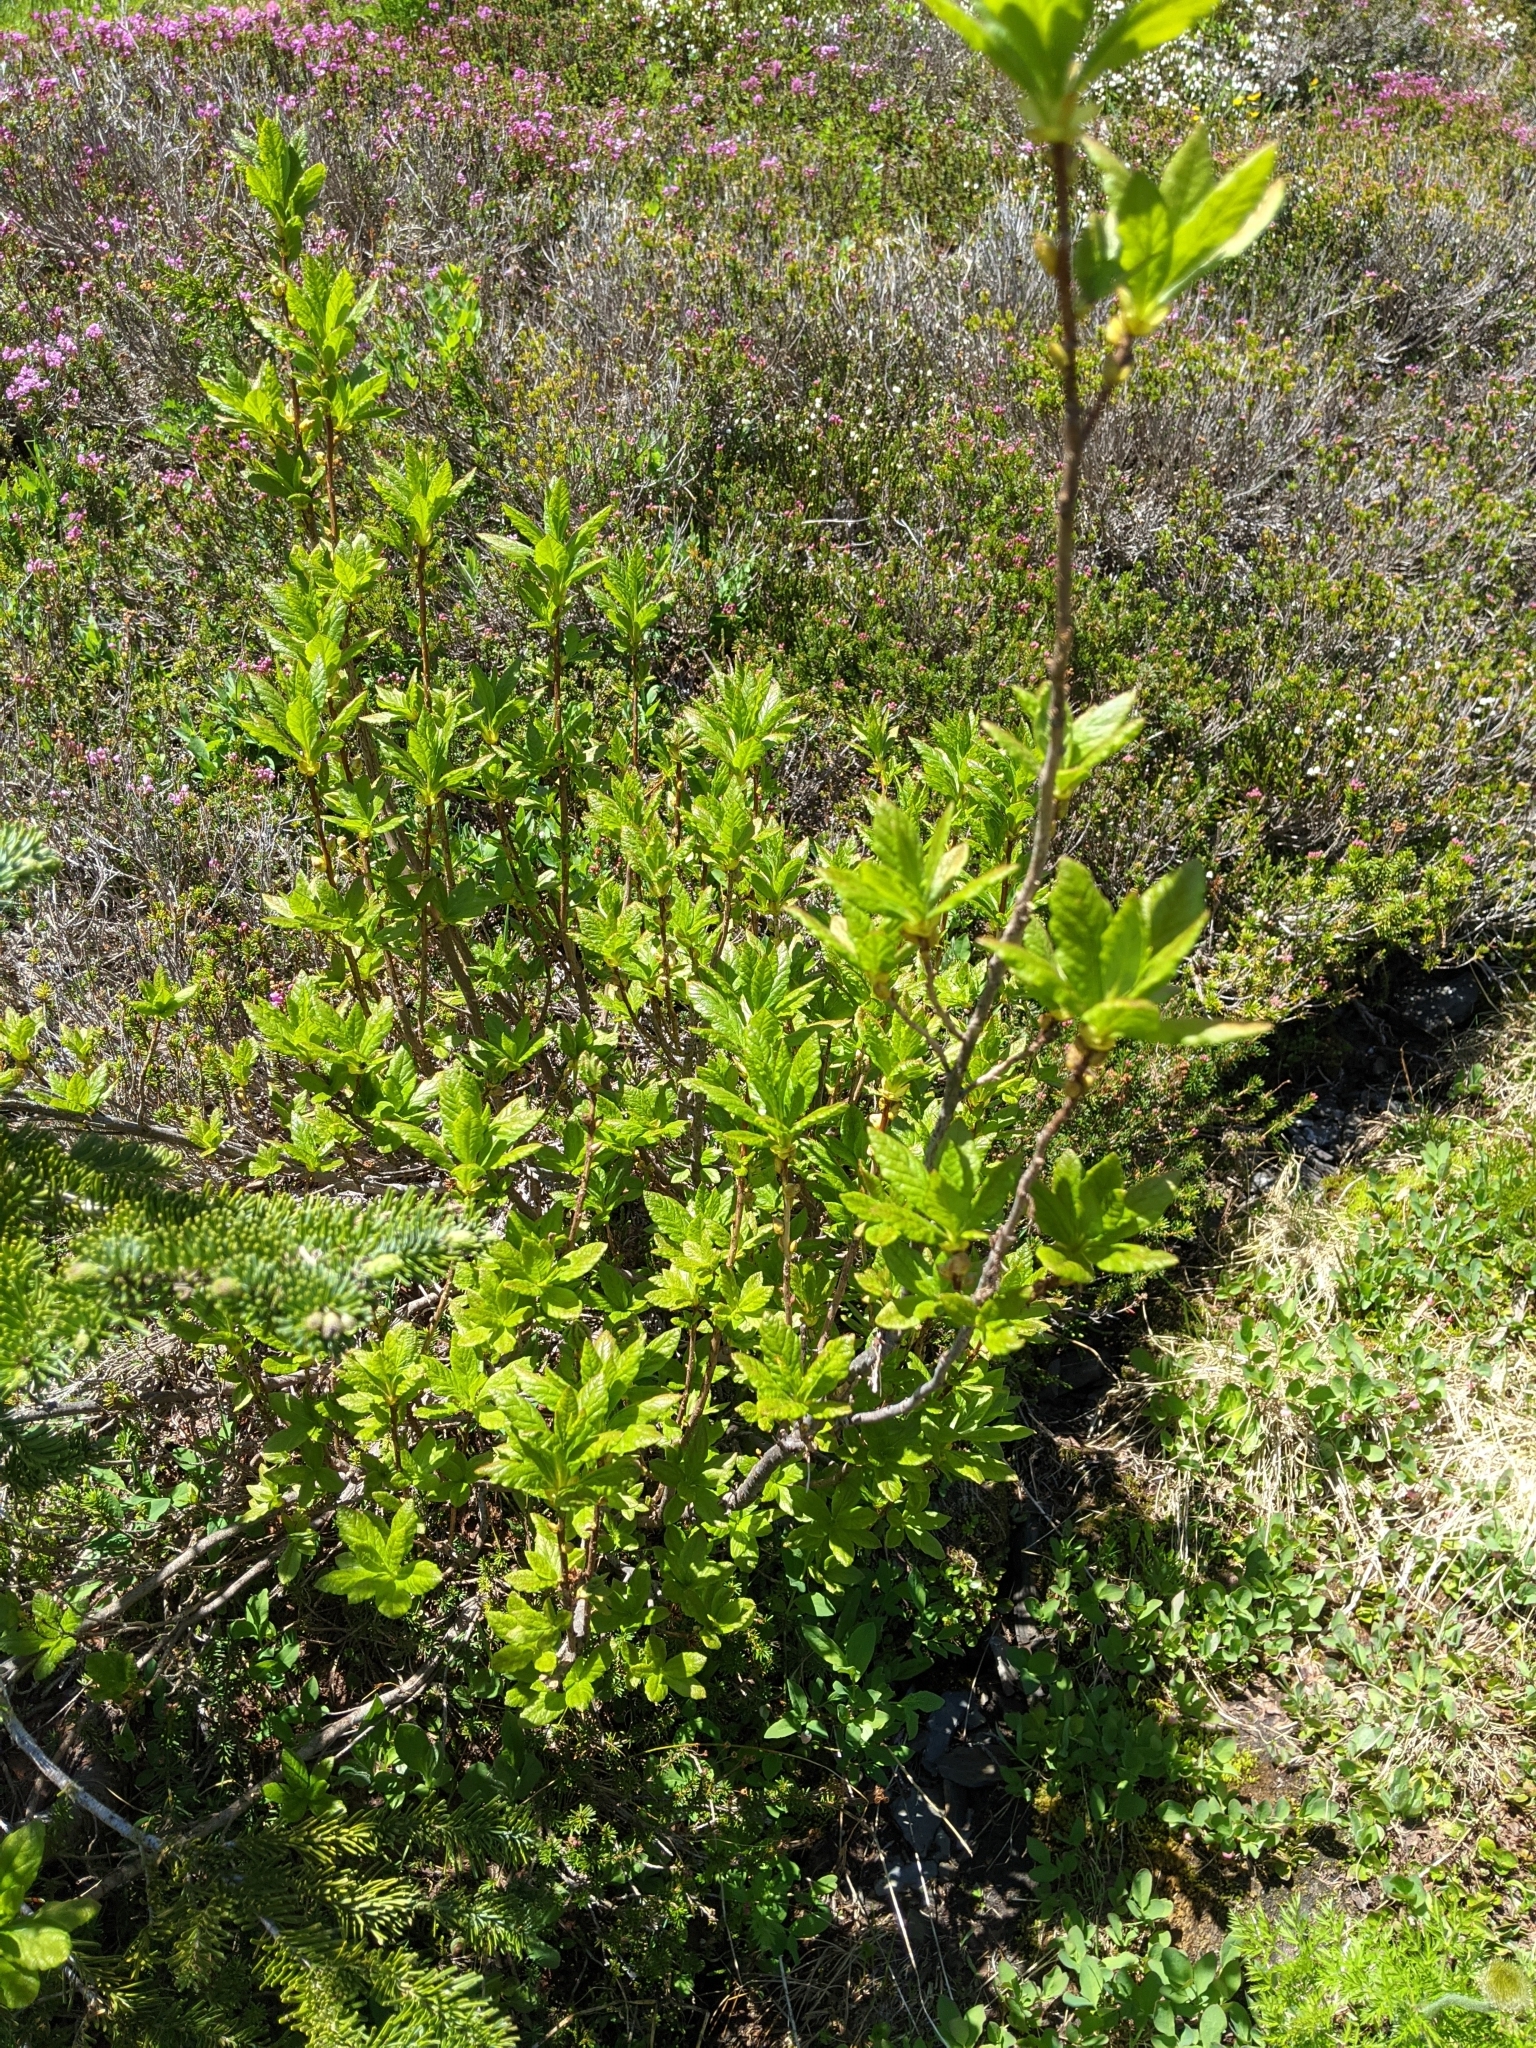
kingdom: Plantae
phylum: Tracheophyta
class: Magnoliopsida
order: Ericales
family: Ericaceae
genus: Rhododendron
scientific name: Rhododendron albiflorum
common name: White rhododendron
